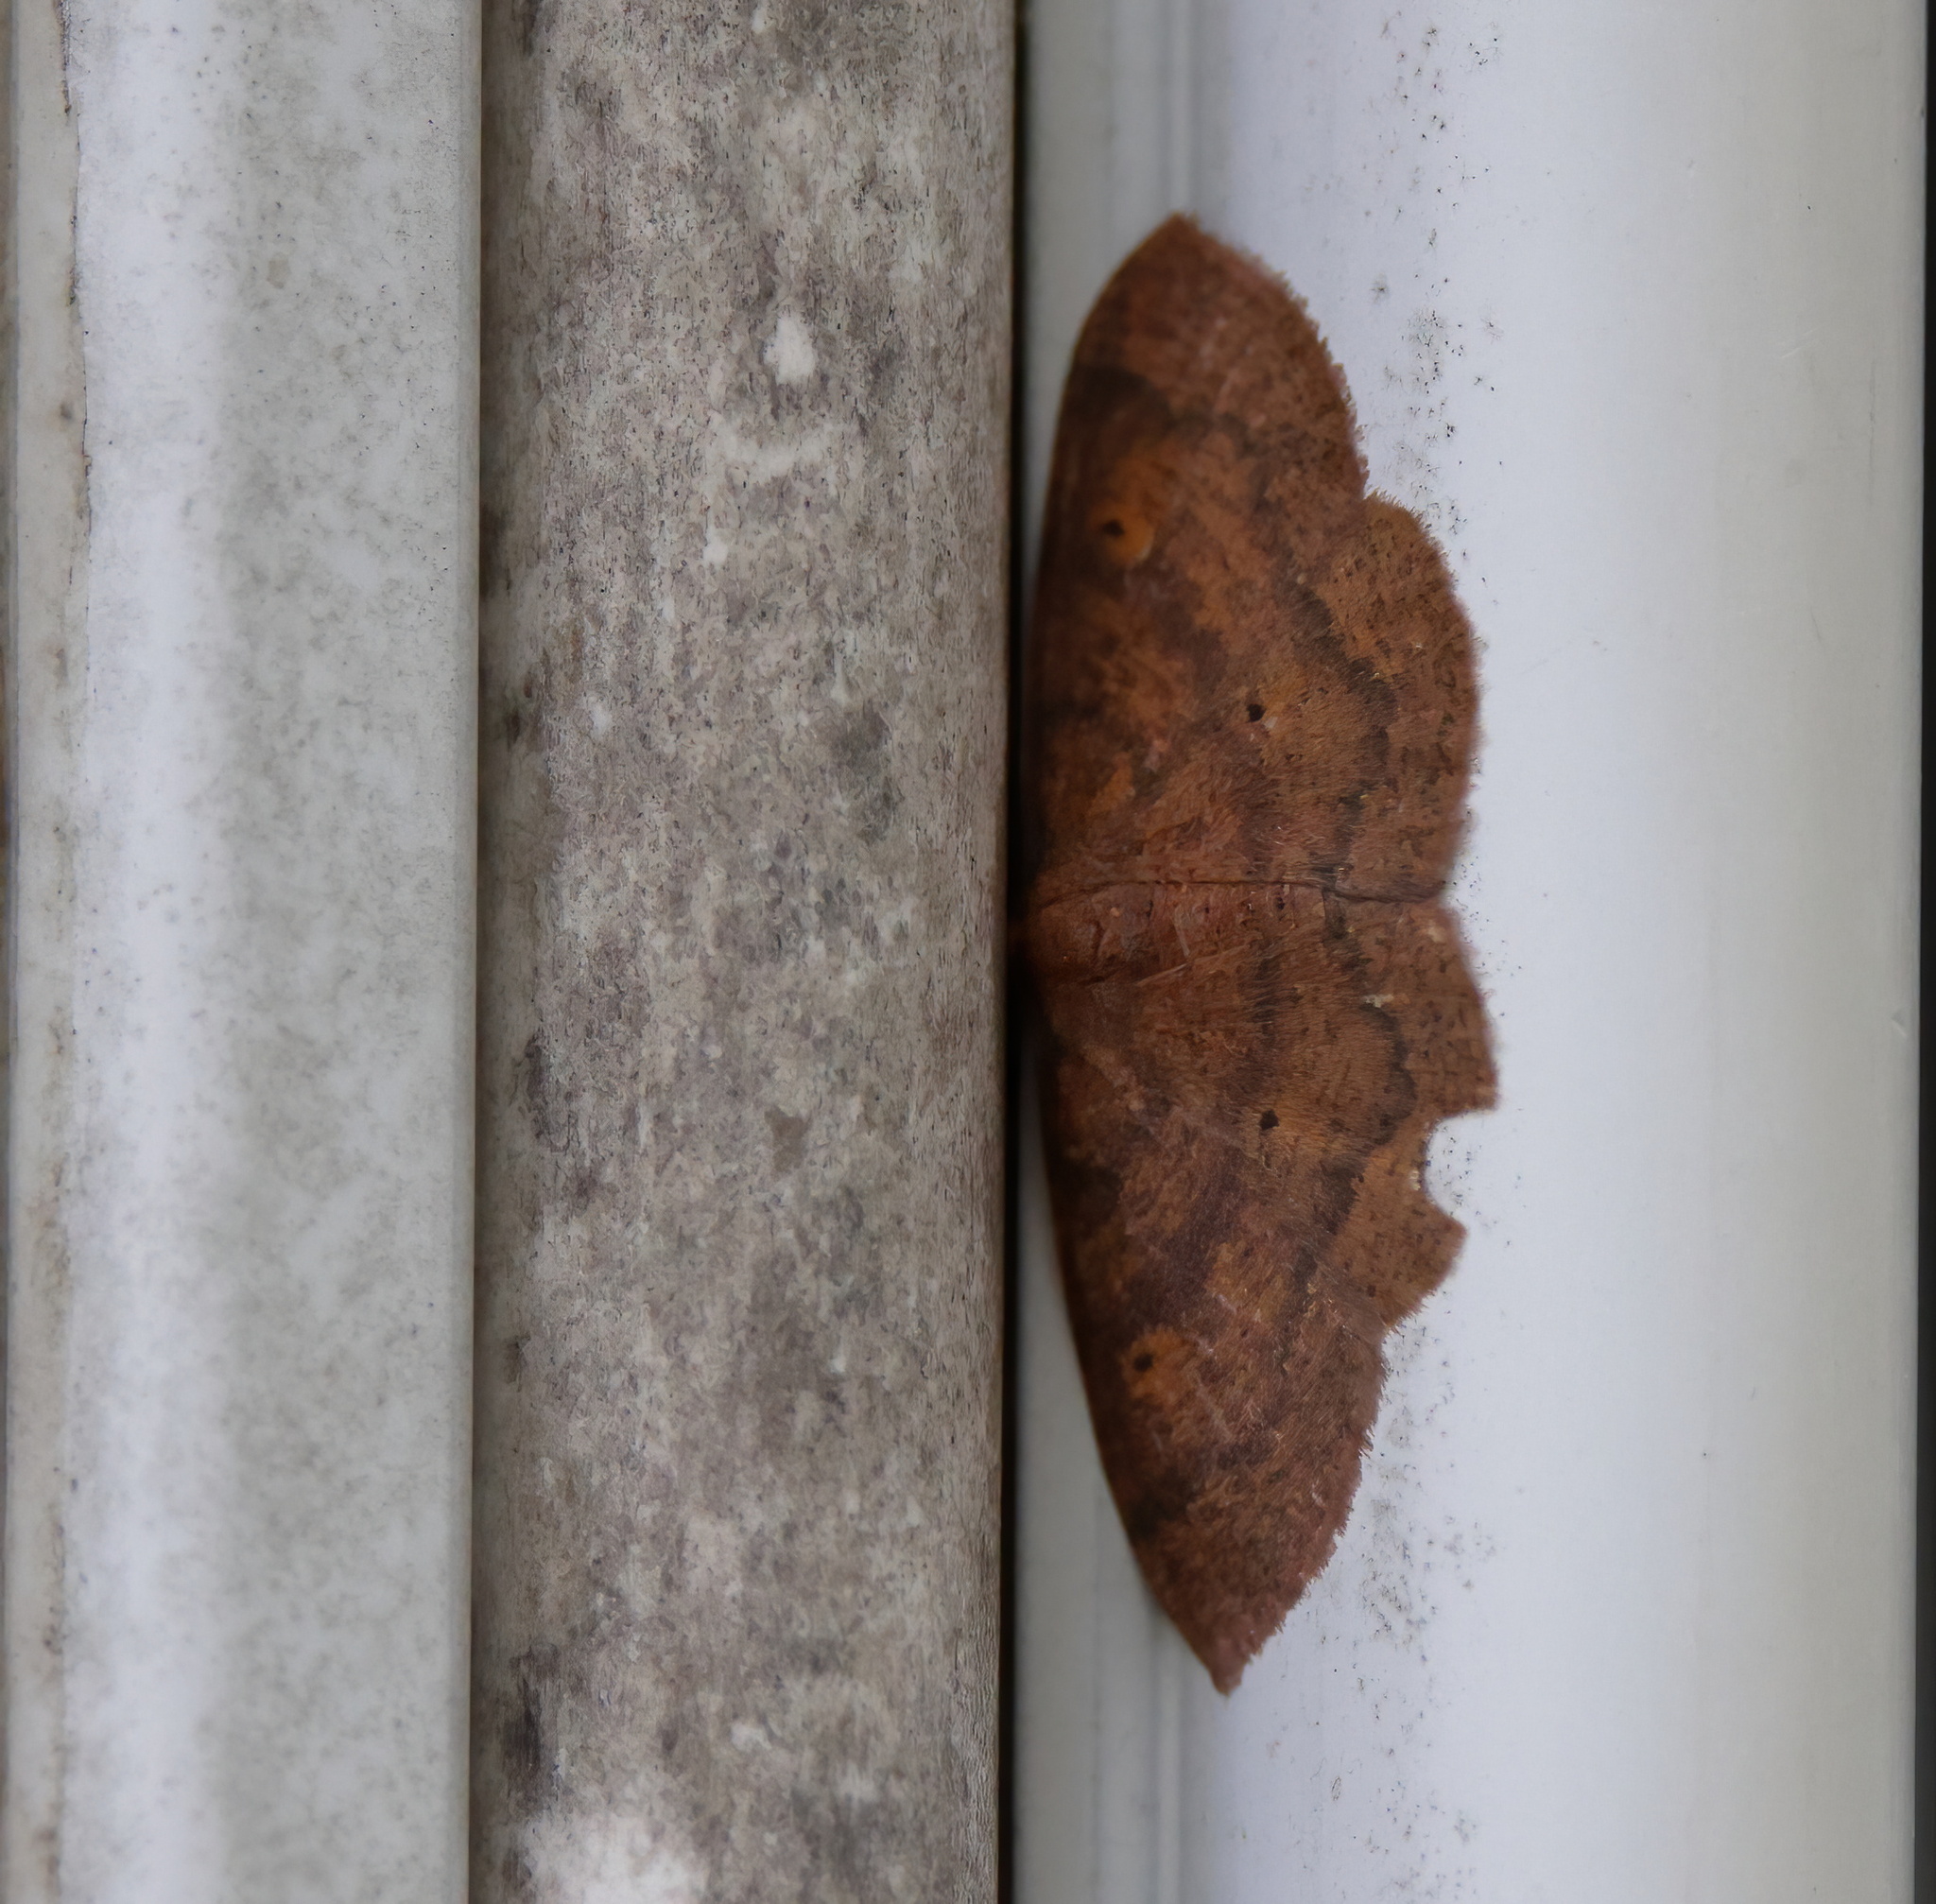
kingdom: Animalia
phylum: Arthropoda
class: Insecta
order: Lepidoptera
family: Geometridae
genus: Ilexia
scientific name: Ilexia intractata
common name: Black-dotted ruddy moth
